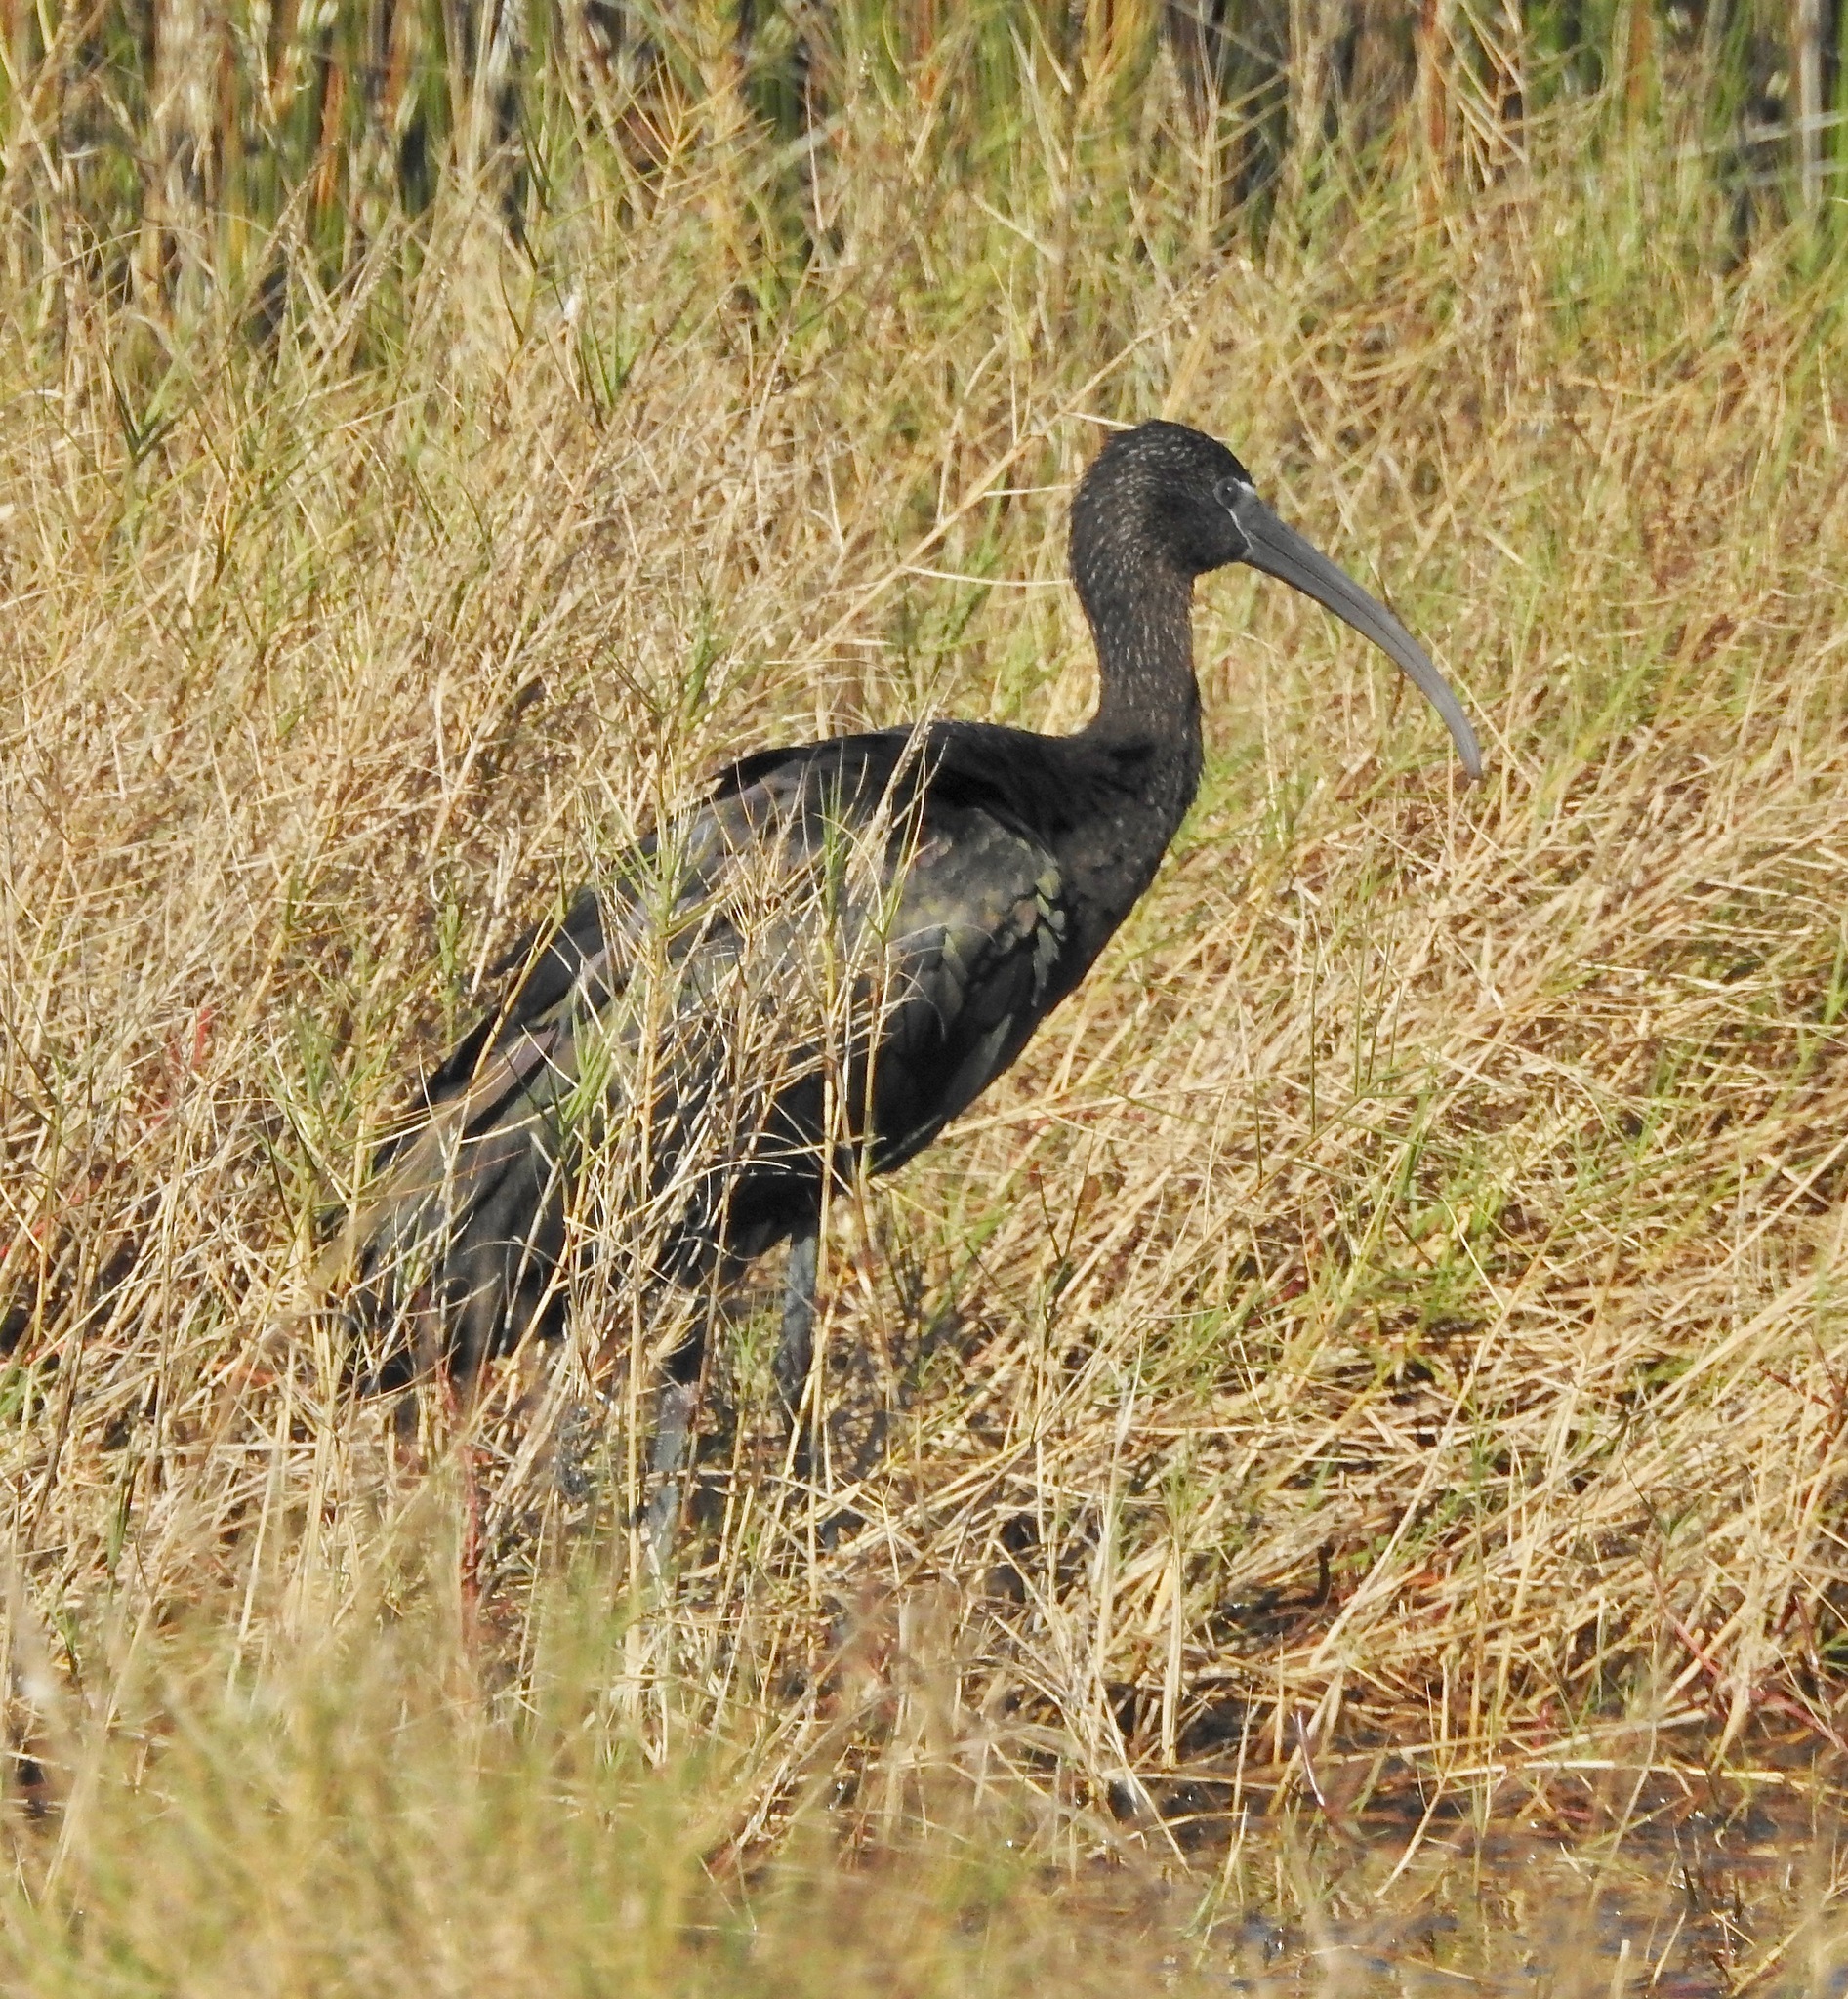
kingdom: Animalia
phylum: Chordata
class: Aves
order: Pelecaniformes
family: Threskiornithidae
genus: Plegadis
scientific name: Plegadis falcinellus
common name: Glossy ibis
